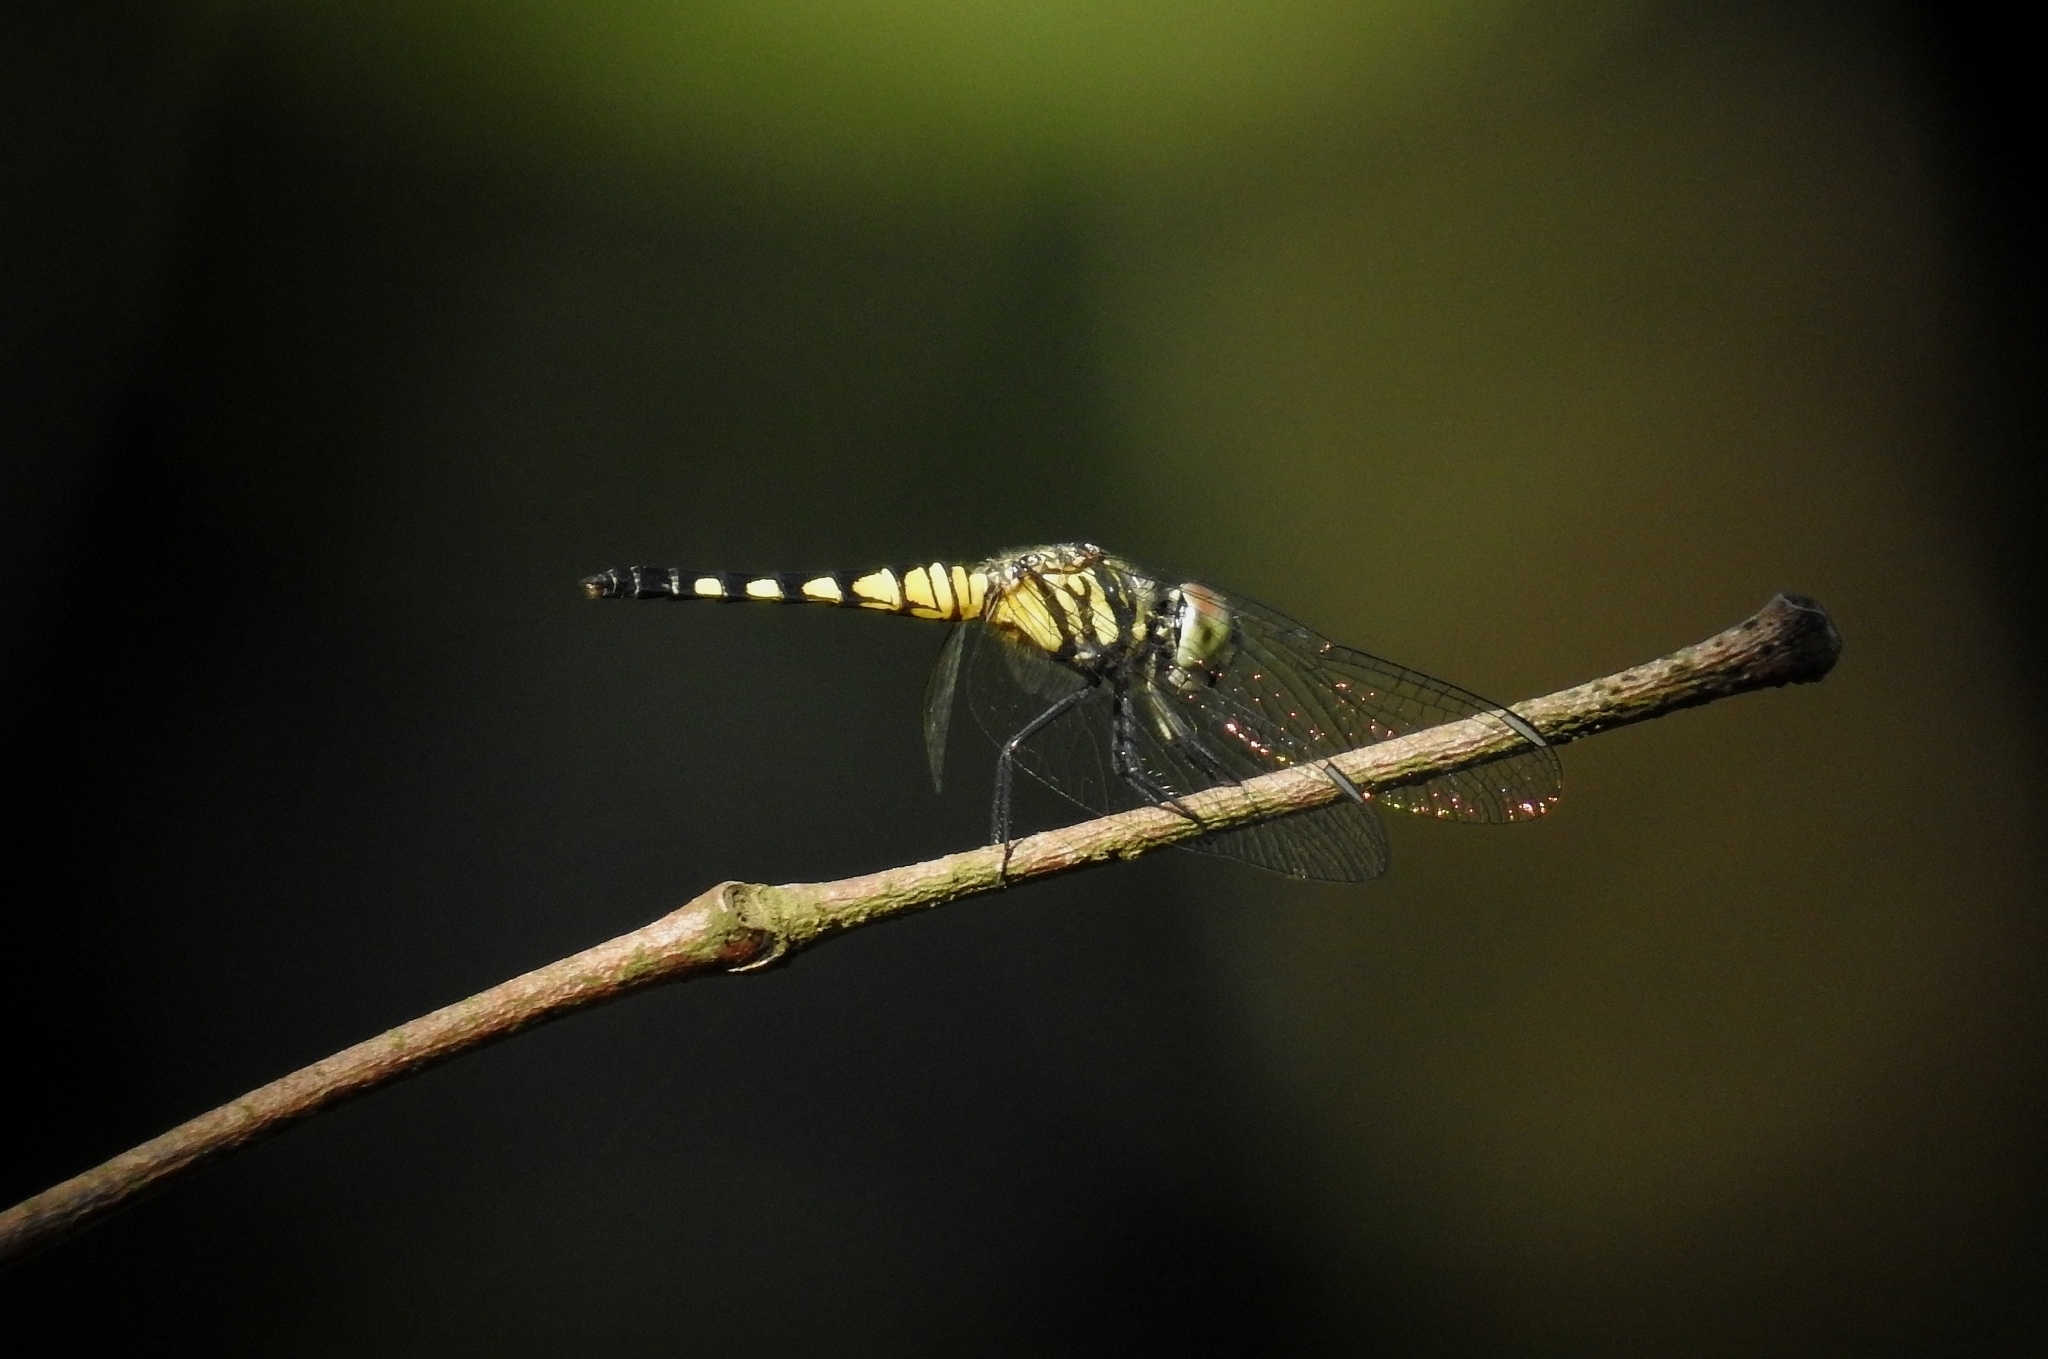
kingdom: Animalia
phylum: Arthropoda
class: Insecta
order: Odonata
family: Libellulidae
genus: Brachydiplax
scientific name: Brachydiplax sobrina
